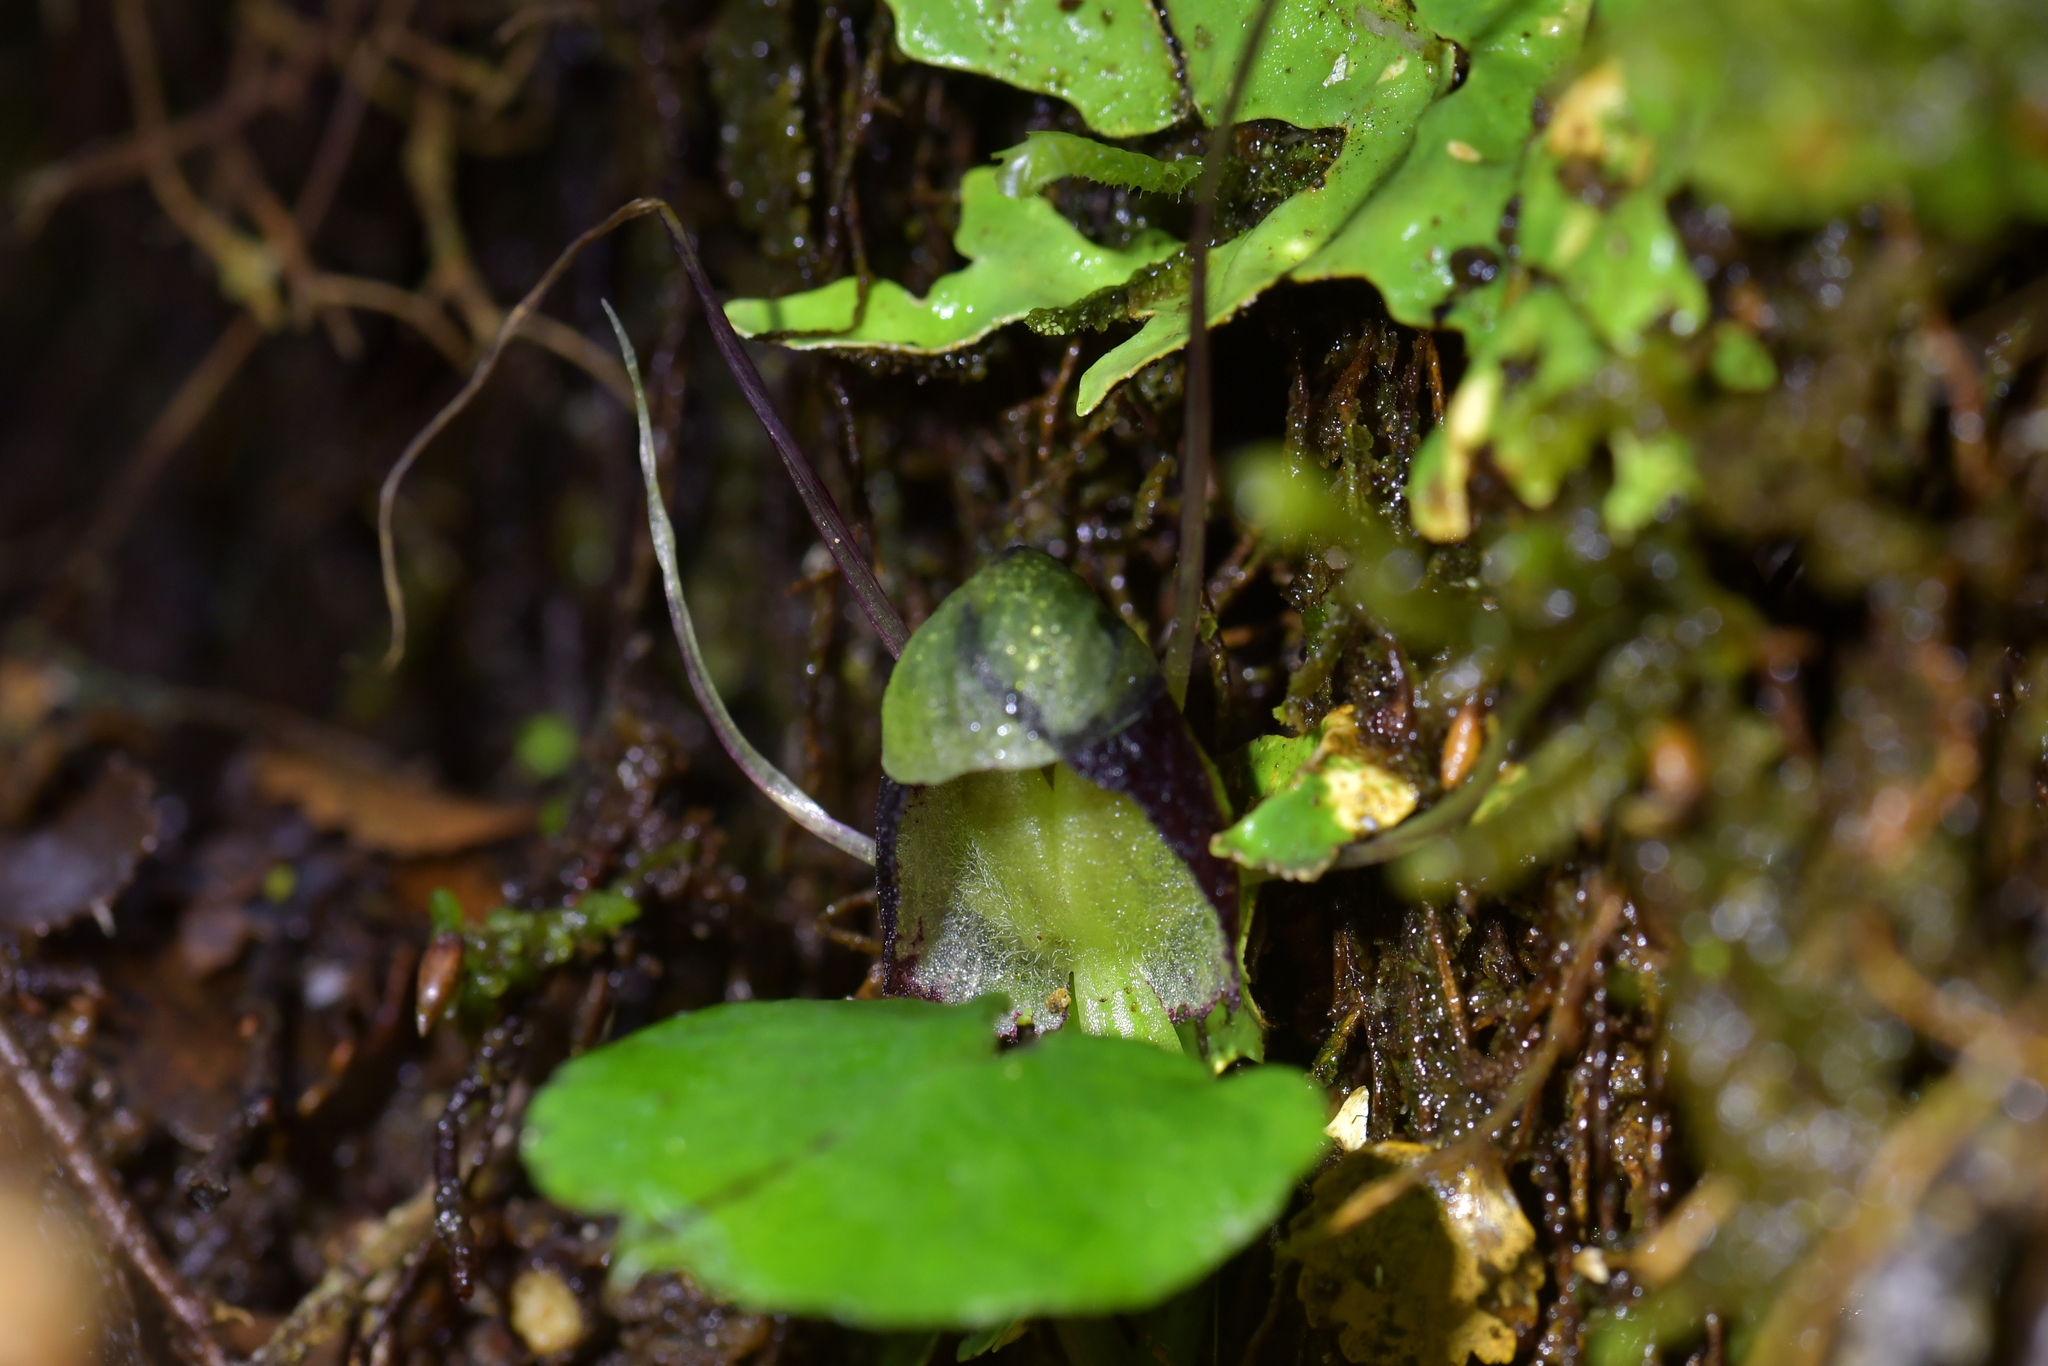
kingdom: Plantae
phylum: Tracheophyta
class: Liliopsida
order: Asparagales
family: Orchidaceae
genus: Corybas
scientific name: Corybas vitreus
